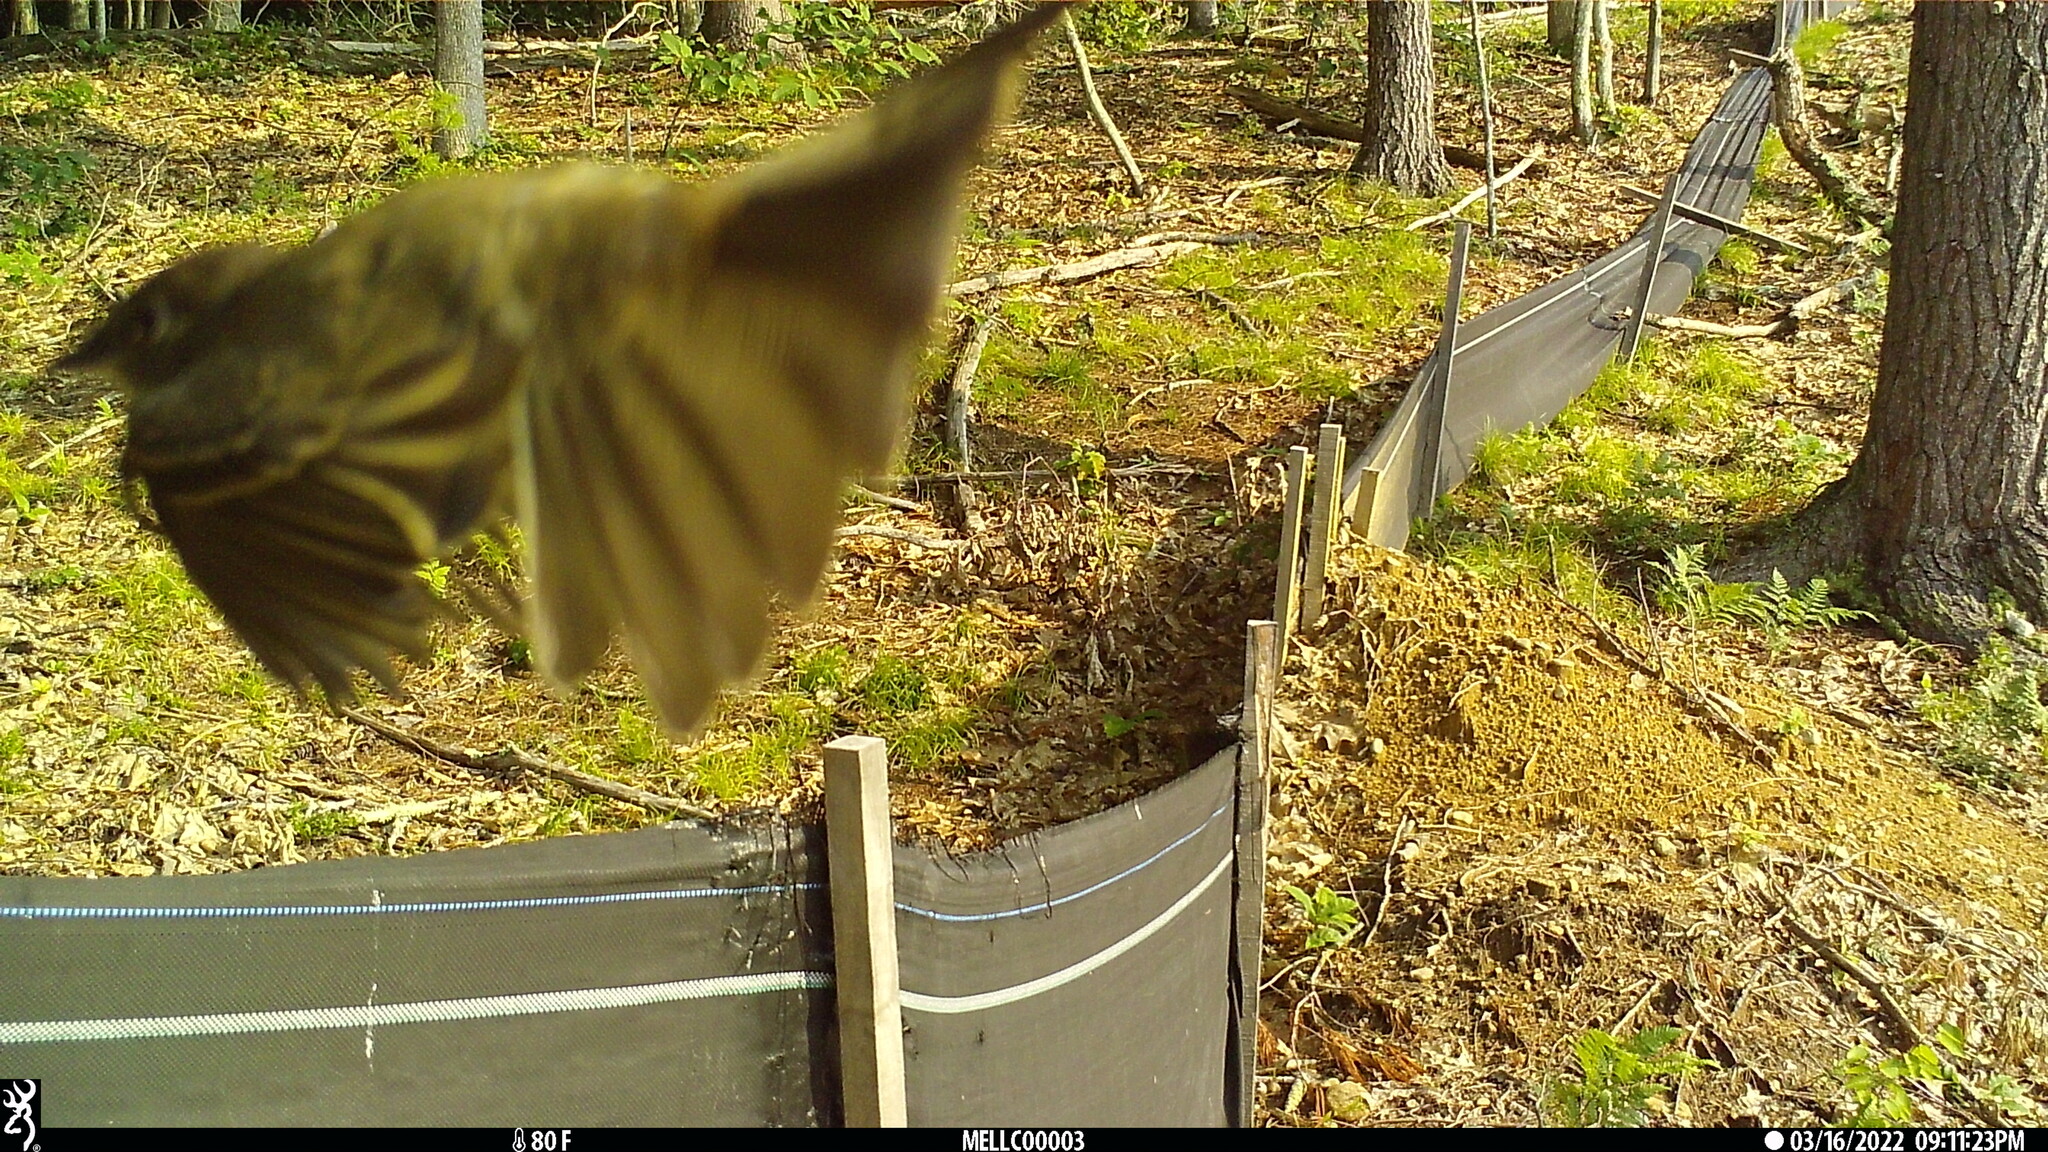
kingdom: Animalia
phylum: Chordata
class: Aves
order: Passeriformes
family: Tyrannidae
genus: Sayornis
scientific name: Sayornis phoebe
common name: Eastern phoebe
